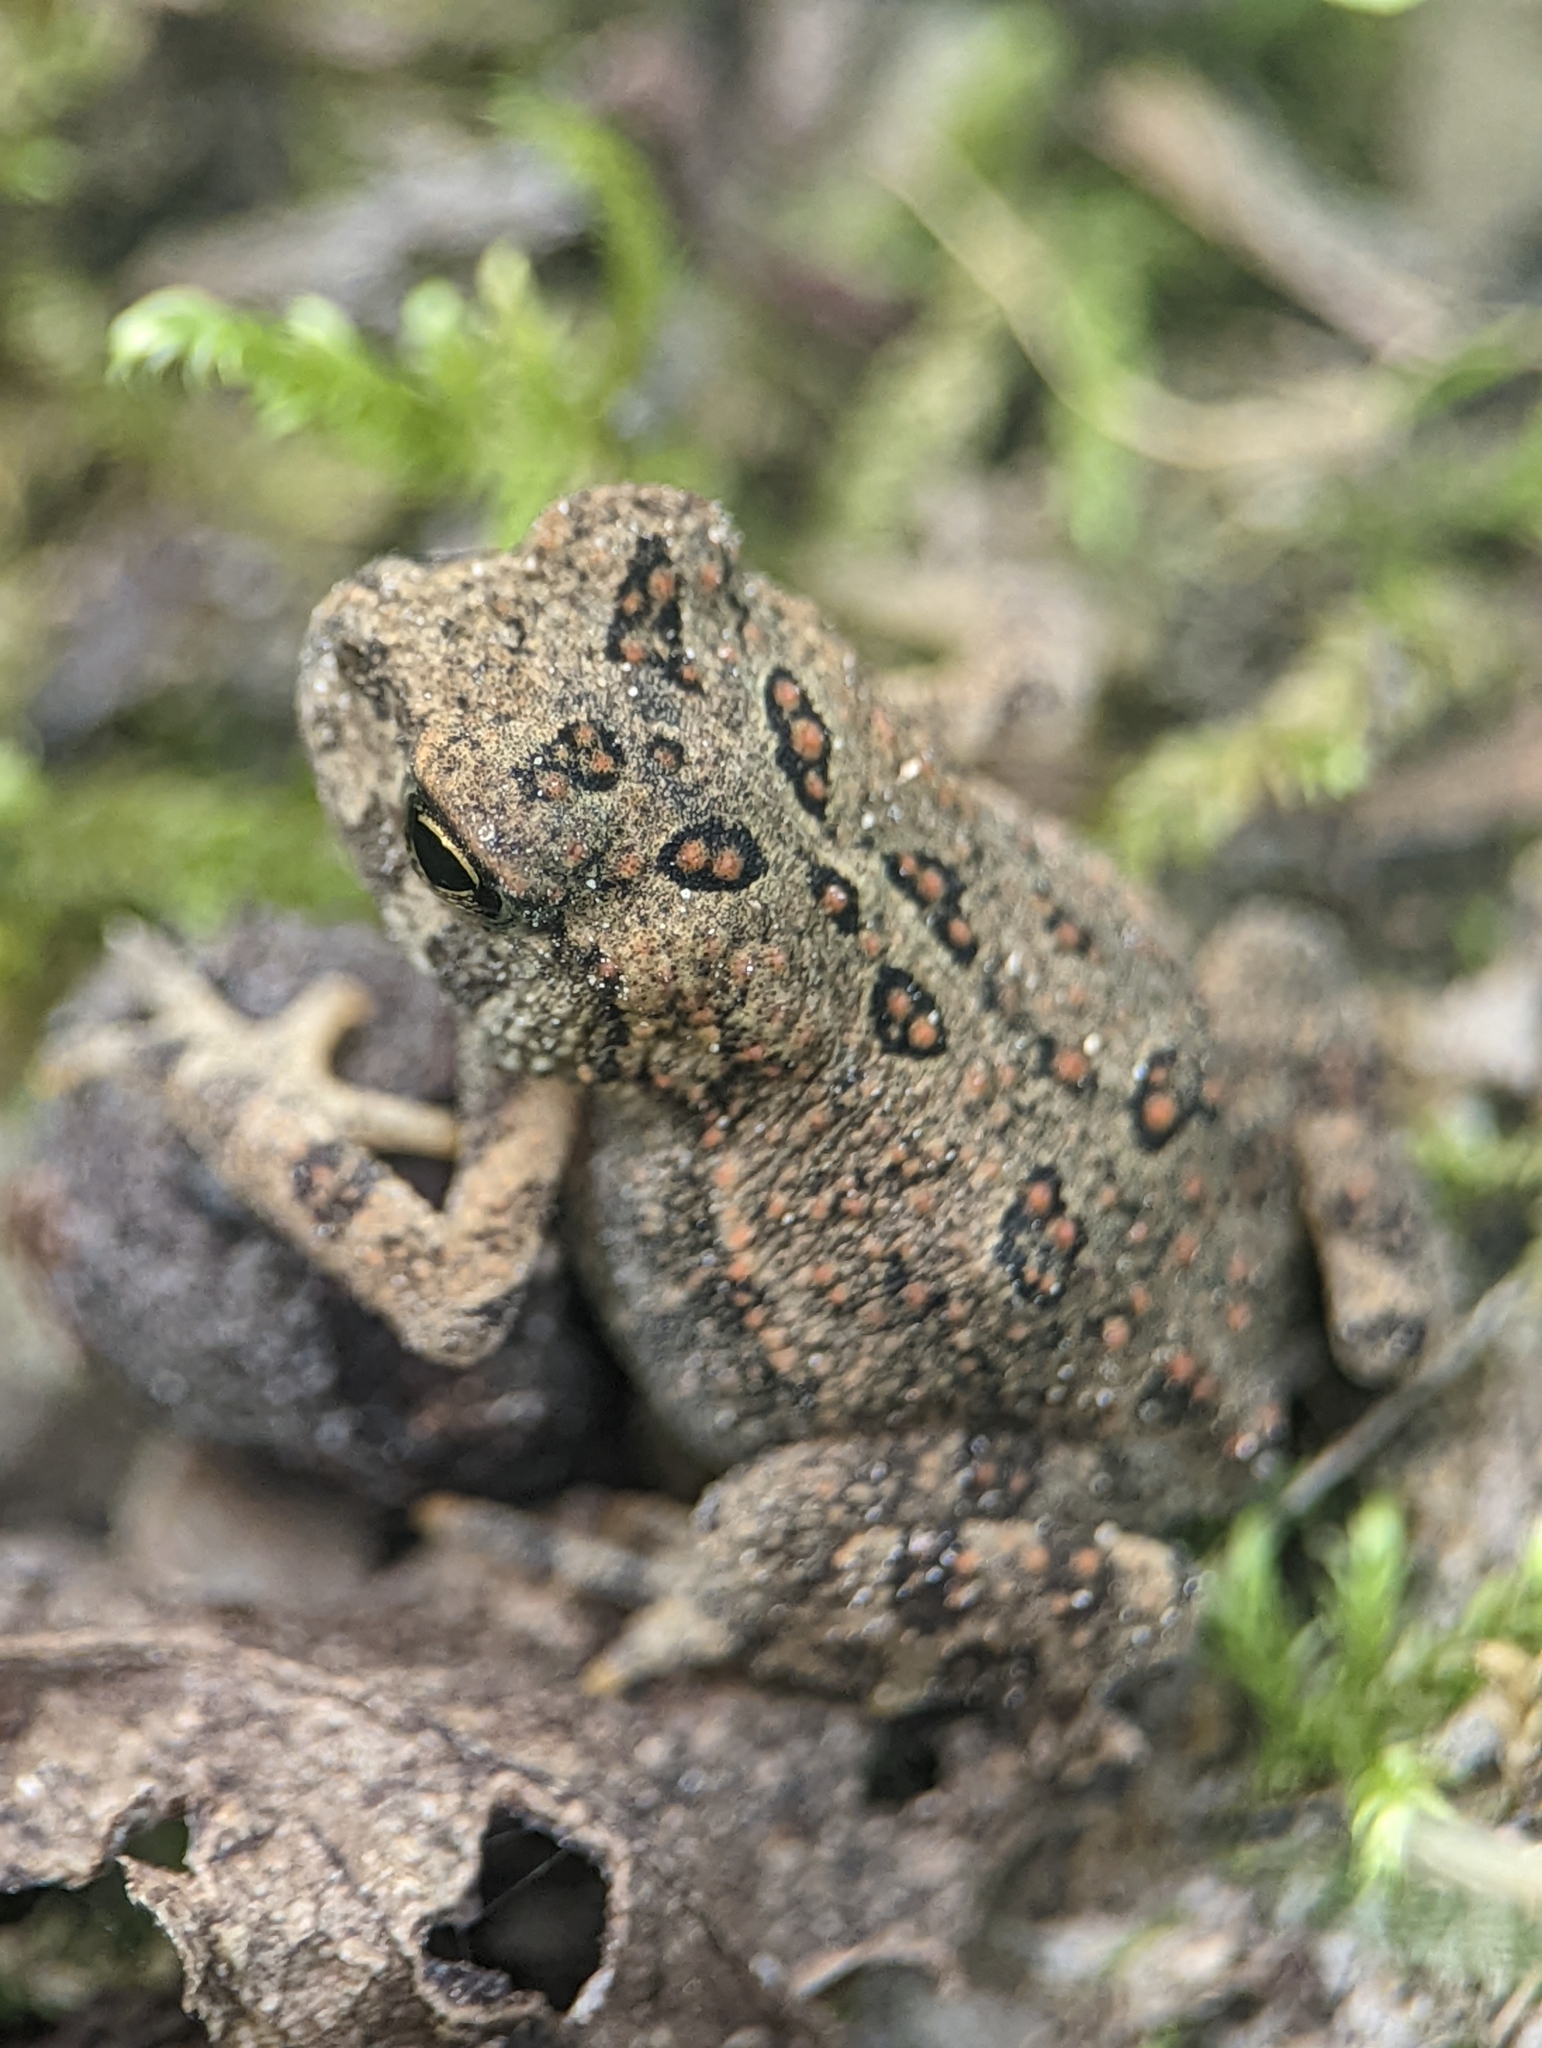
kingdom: Animalia
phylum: Chordata
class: Amphibia
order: Anura
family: Bufonidae
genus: Anaxyrus
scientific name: Anaxyrus americanus
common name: American toad
